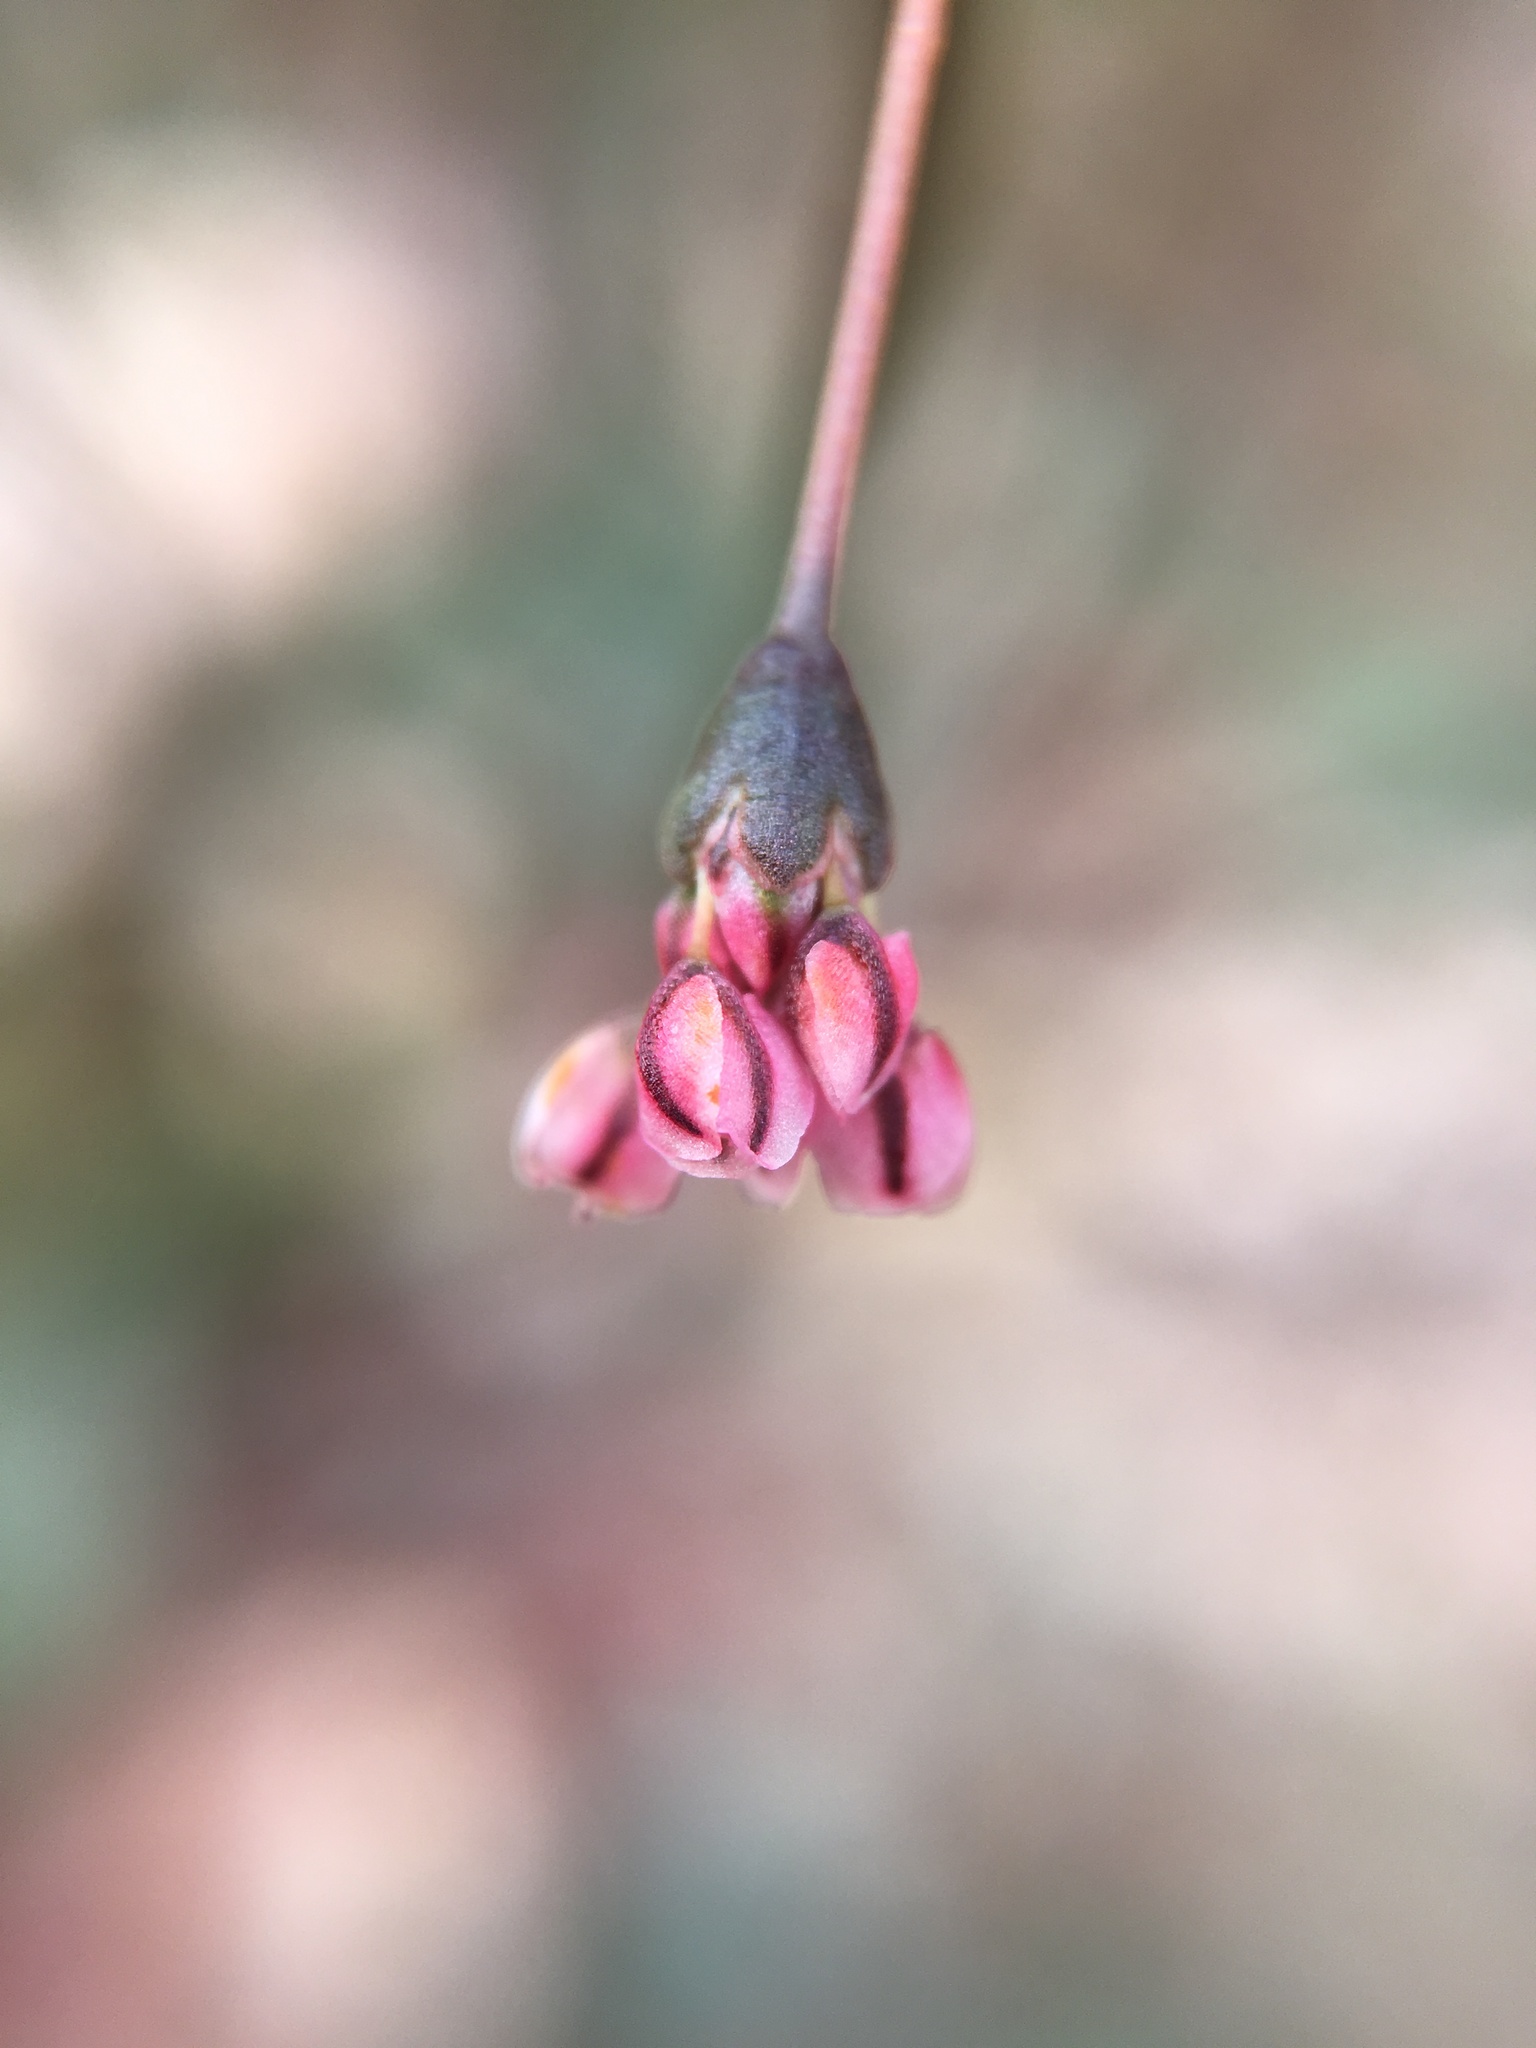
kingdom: Plantae
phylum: Tracheophyta
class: Magnoliopsida
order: Caryophyllales
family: Polygonaceae
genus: Eriogonum
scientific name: Eriogonum deflexum
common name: Skeleton-weed
